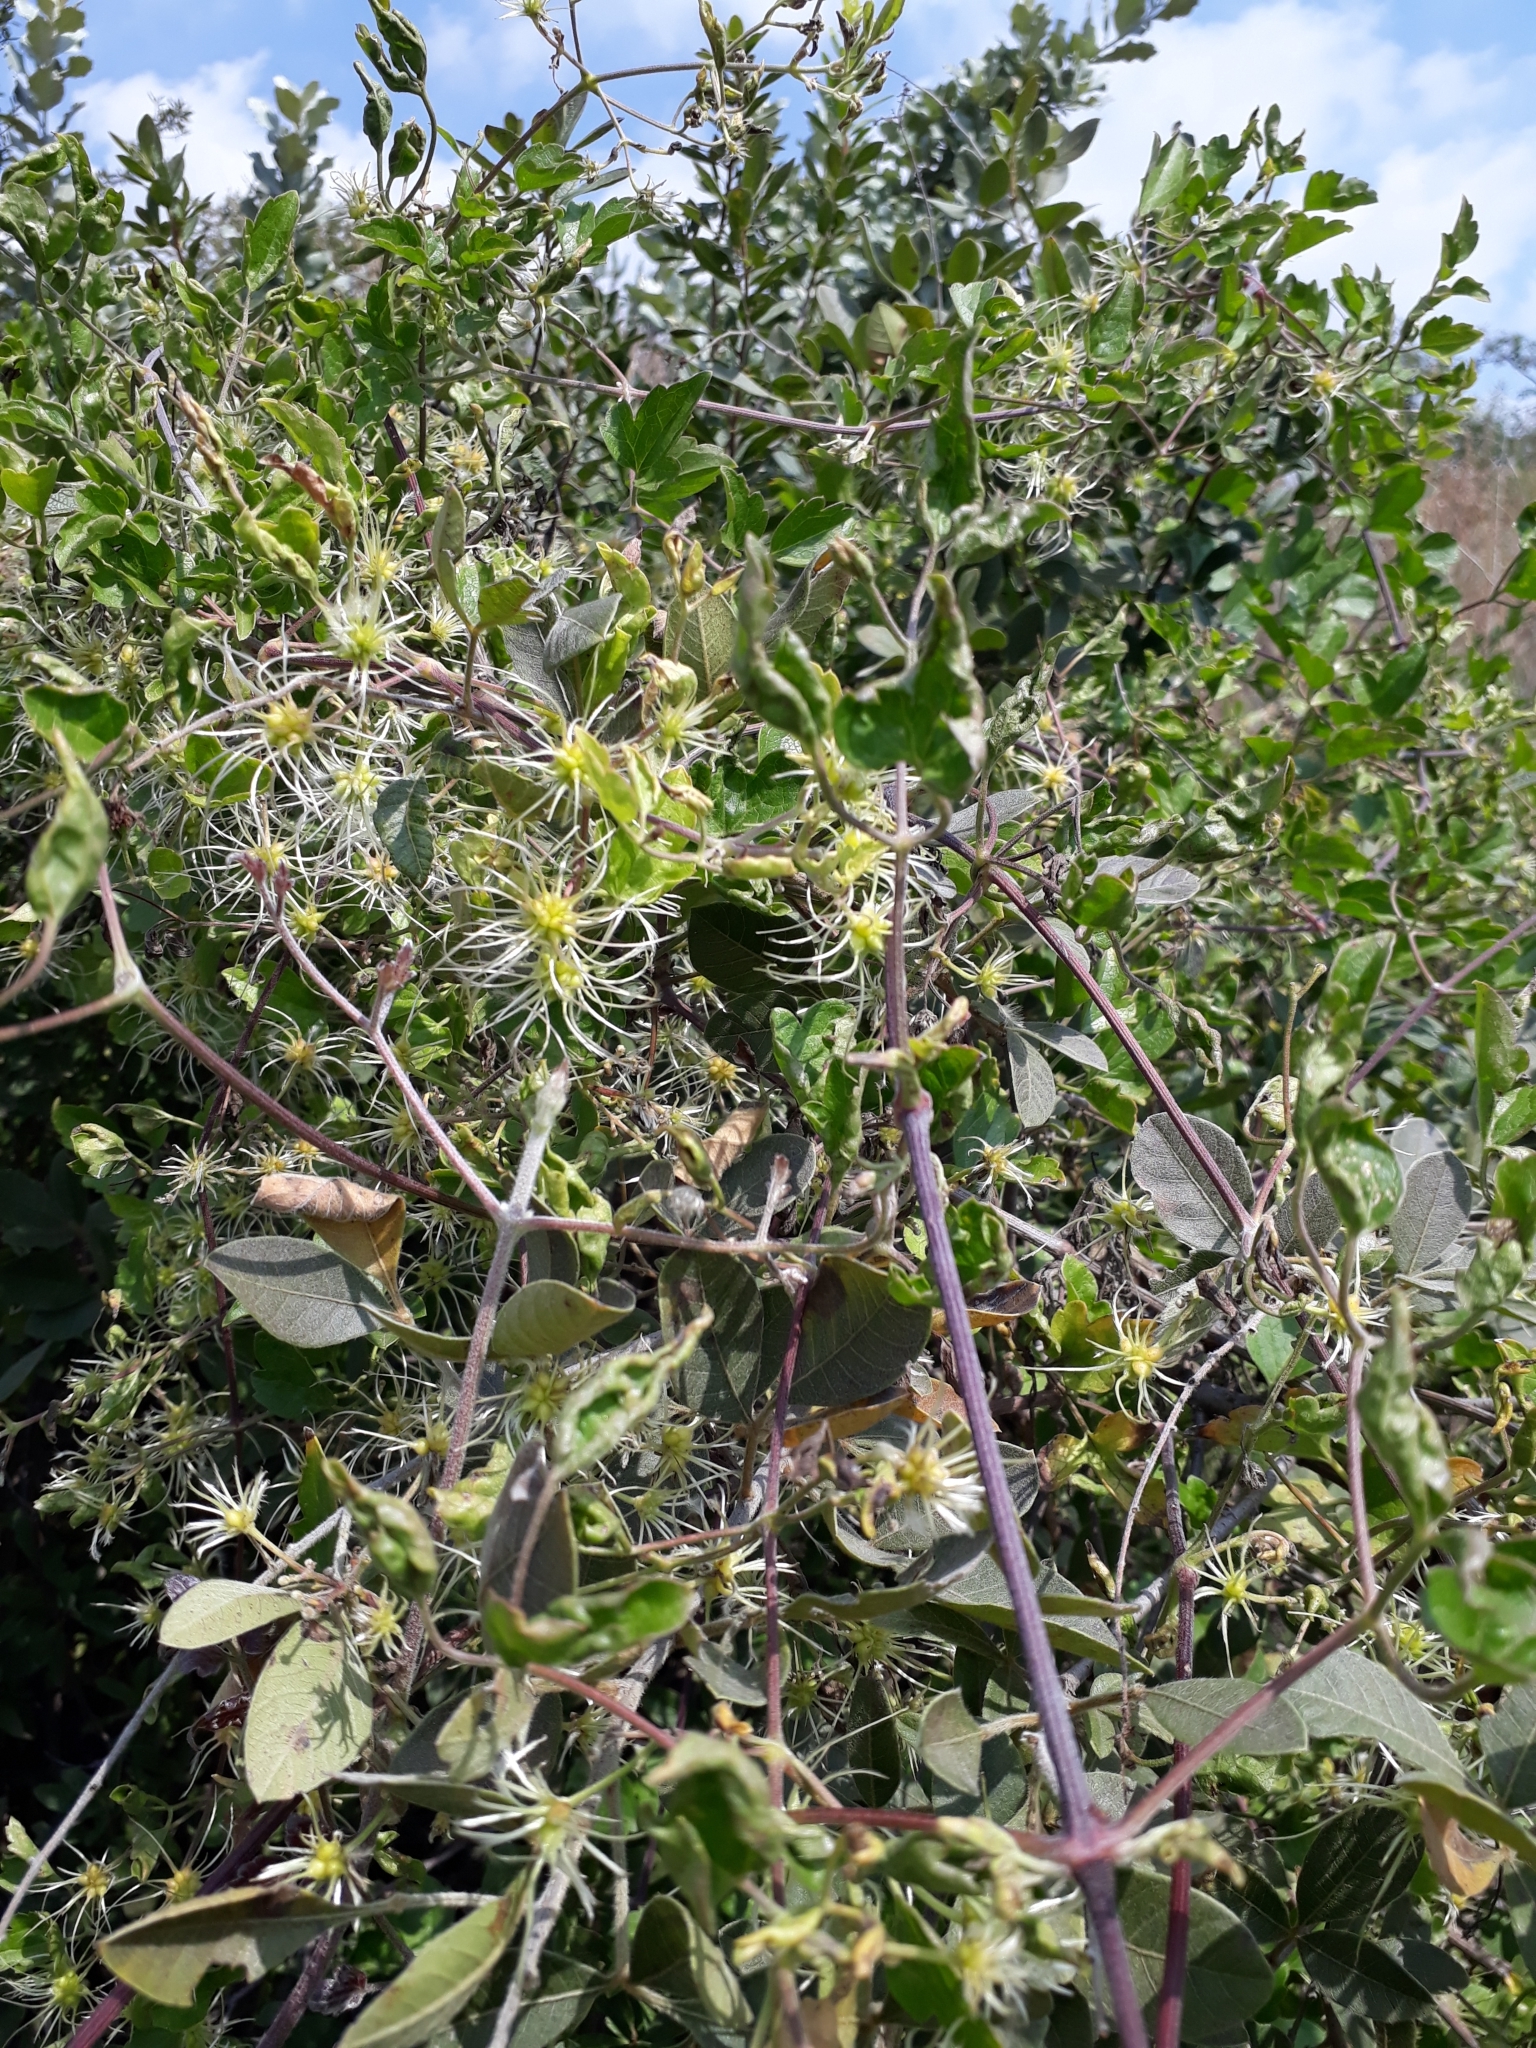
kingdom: Plantae
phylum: Tracheophyta
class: Magnoliopsida
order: Ranunculales
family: Ranunculaceae
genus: Clematis
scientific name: Clematis brachiata
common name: Traveler's-joy
